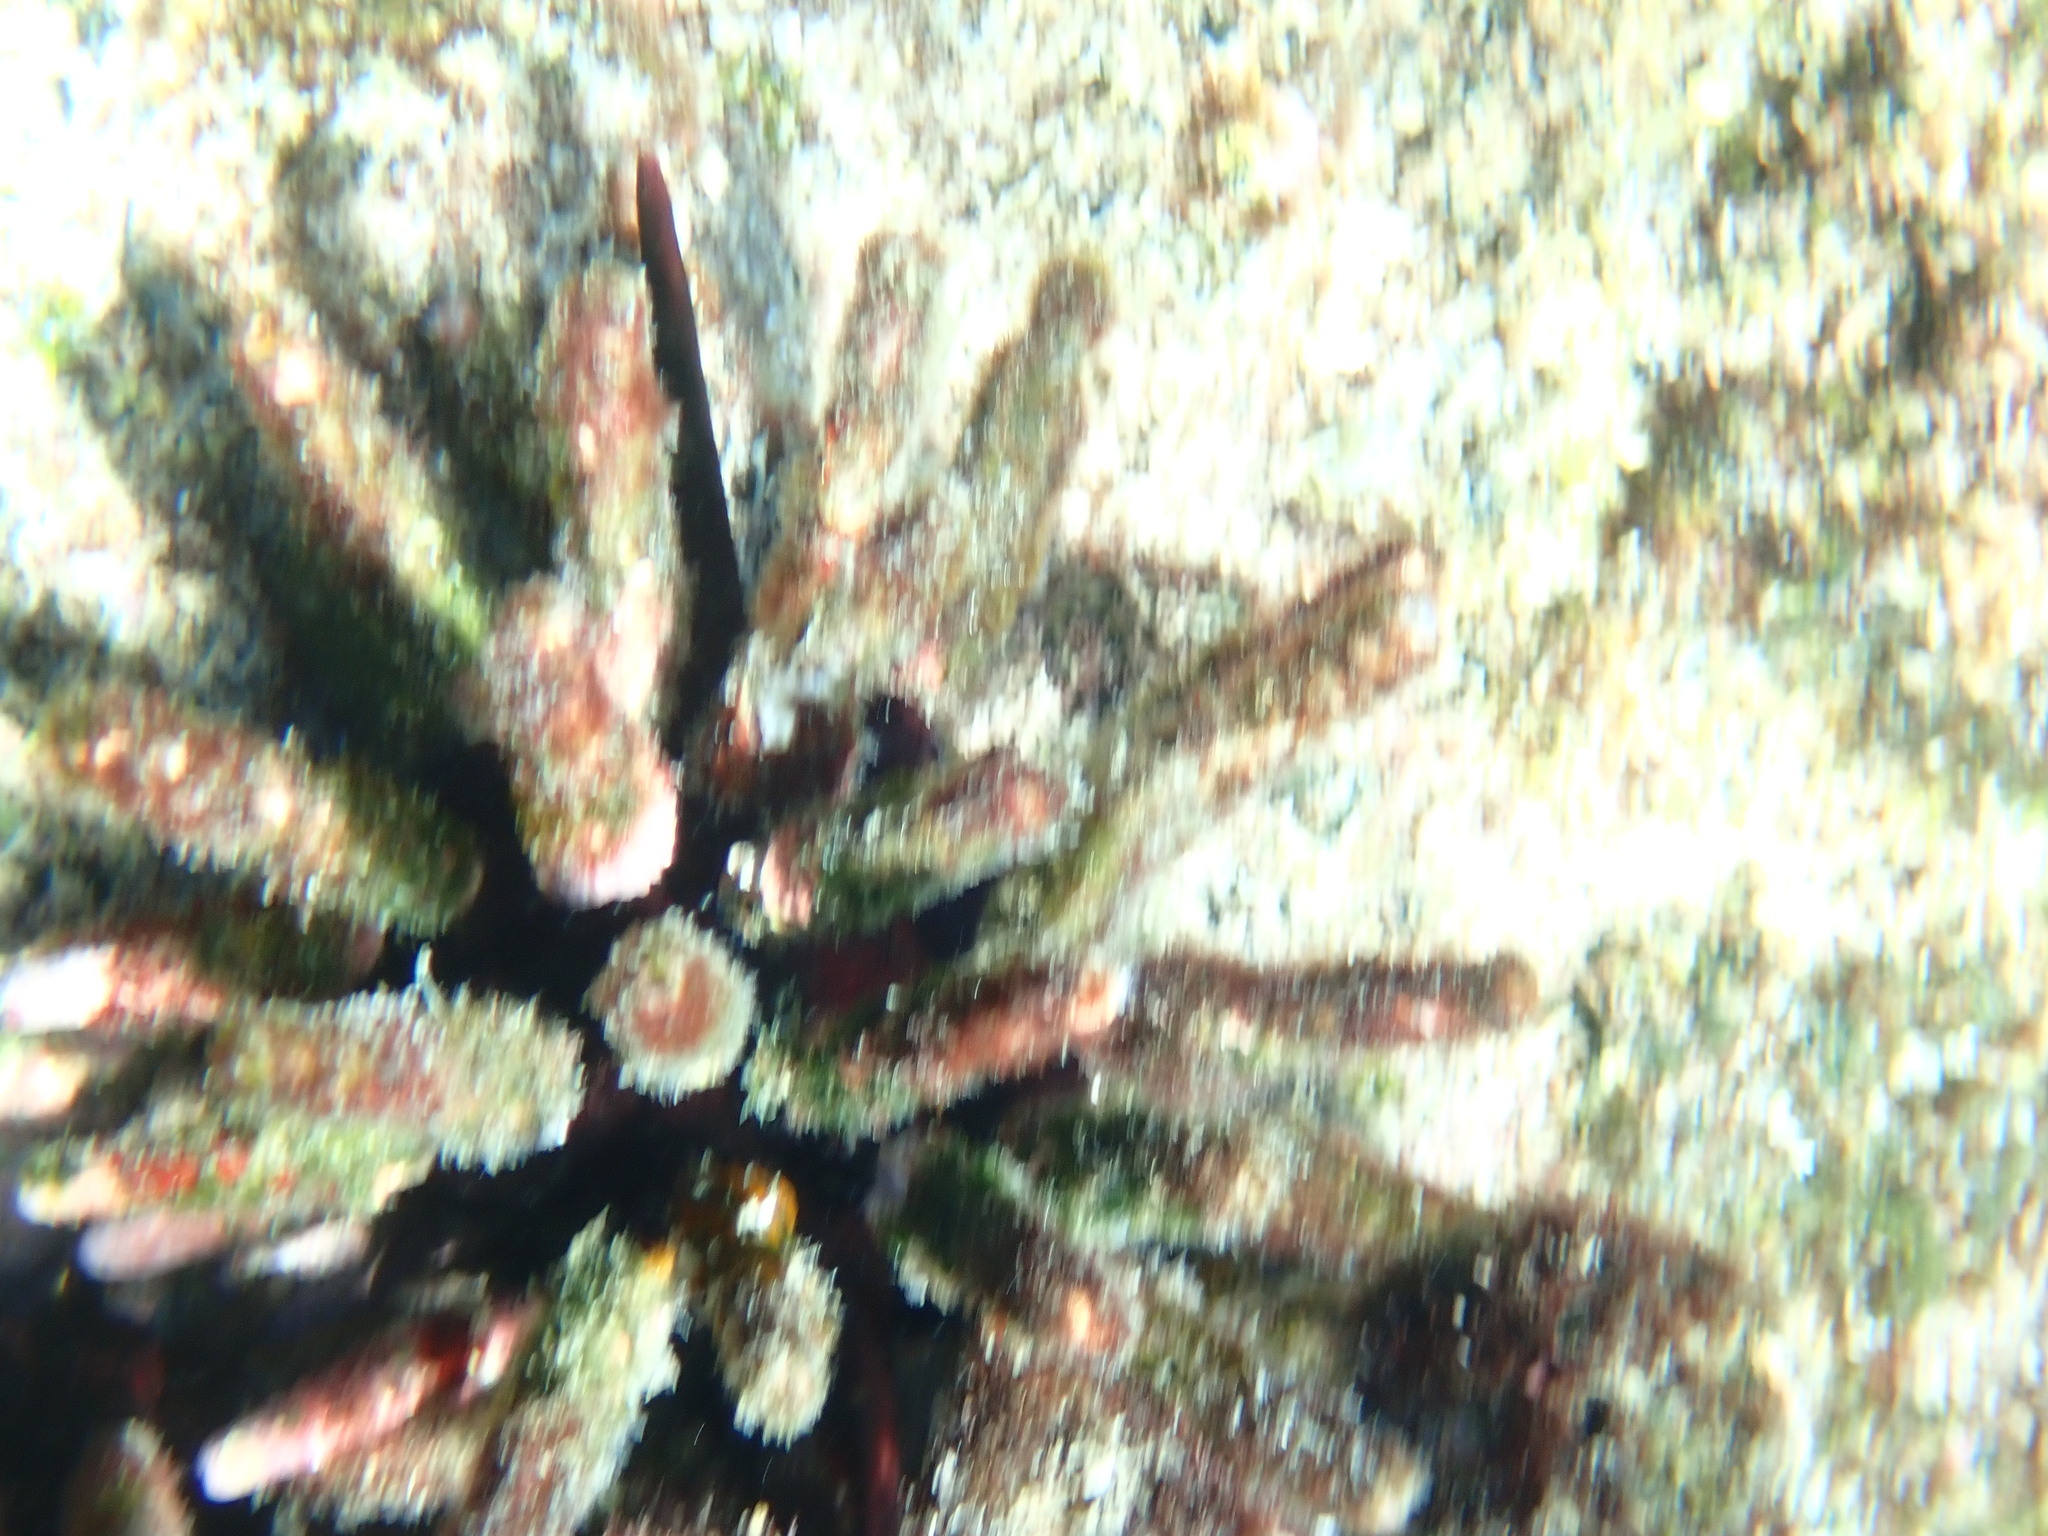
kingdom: Animalia
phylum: Echinodermata
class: Echinoidea
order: Cidaroida
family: Cidaridae
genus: Eucidaris
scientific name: Eucidaris galapagensis
